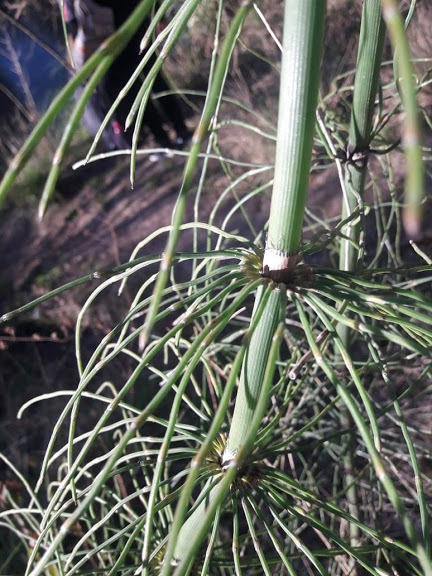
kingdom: Plantae
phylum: Tracheophyta
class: Polypodiopsida
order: Equisetales
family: Equisetaceae
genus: Equisetum
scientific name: Equisetum giganteum
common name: Giant horsetail
